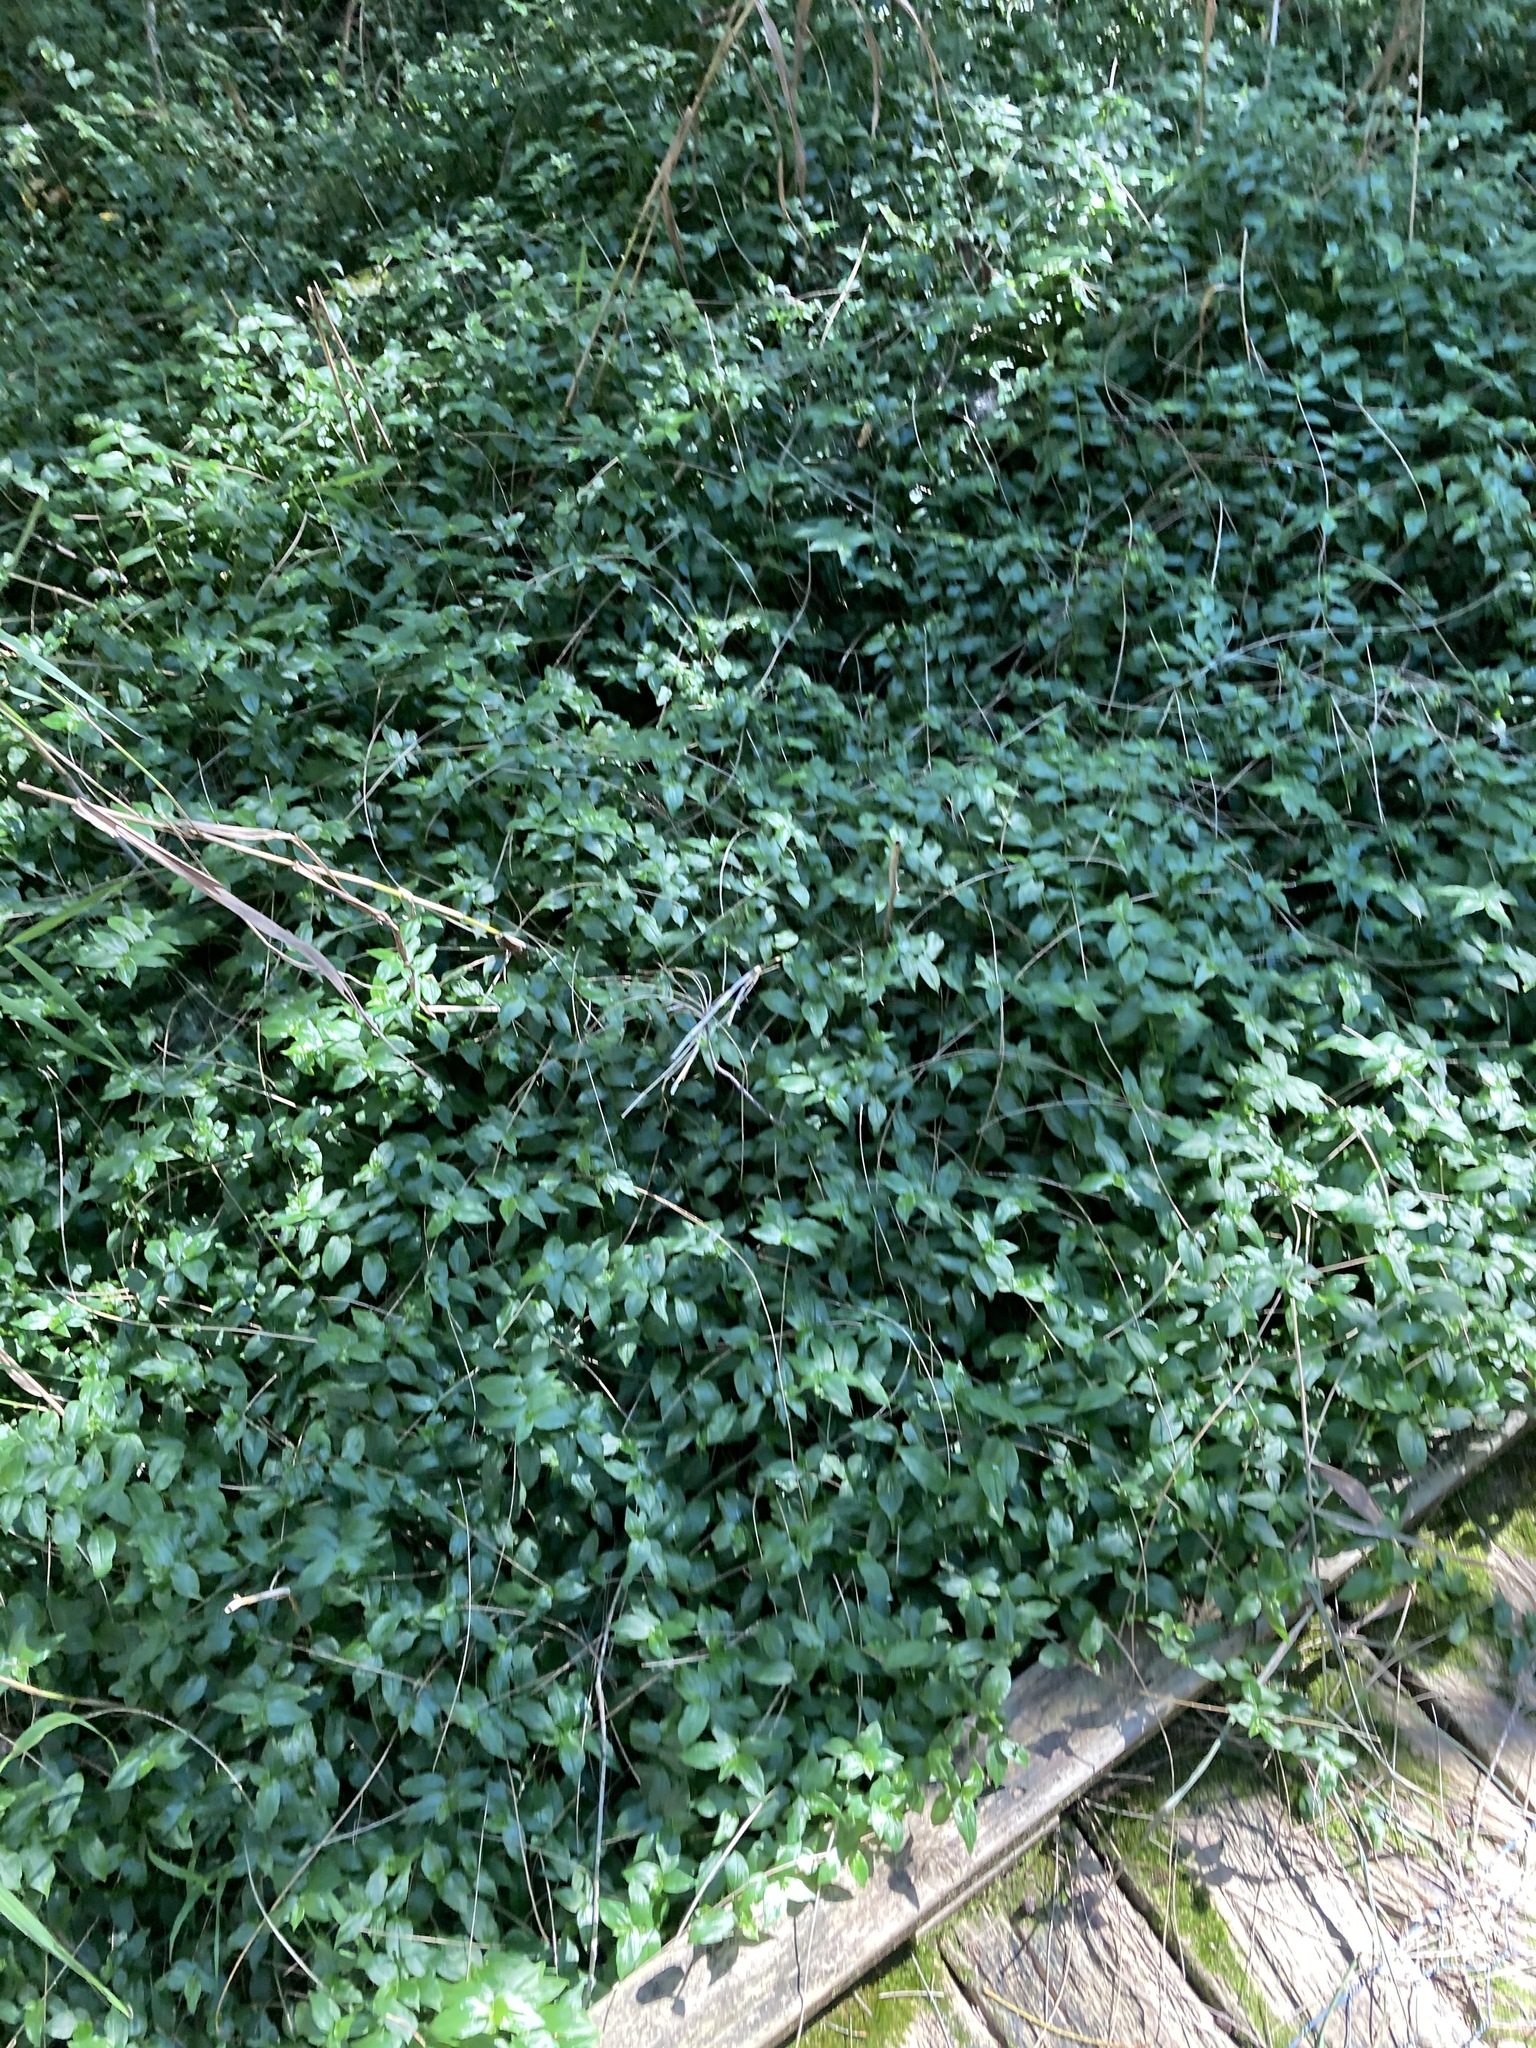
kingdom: Plantae
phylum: Tracheophyta
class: Liliopsida
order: Commelinales
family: Commelinaceae
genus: Tradescantia
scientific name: Tradescantia fluminensis
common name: Wandering-jew
